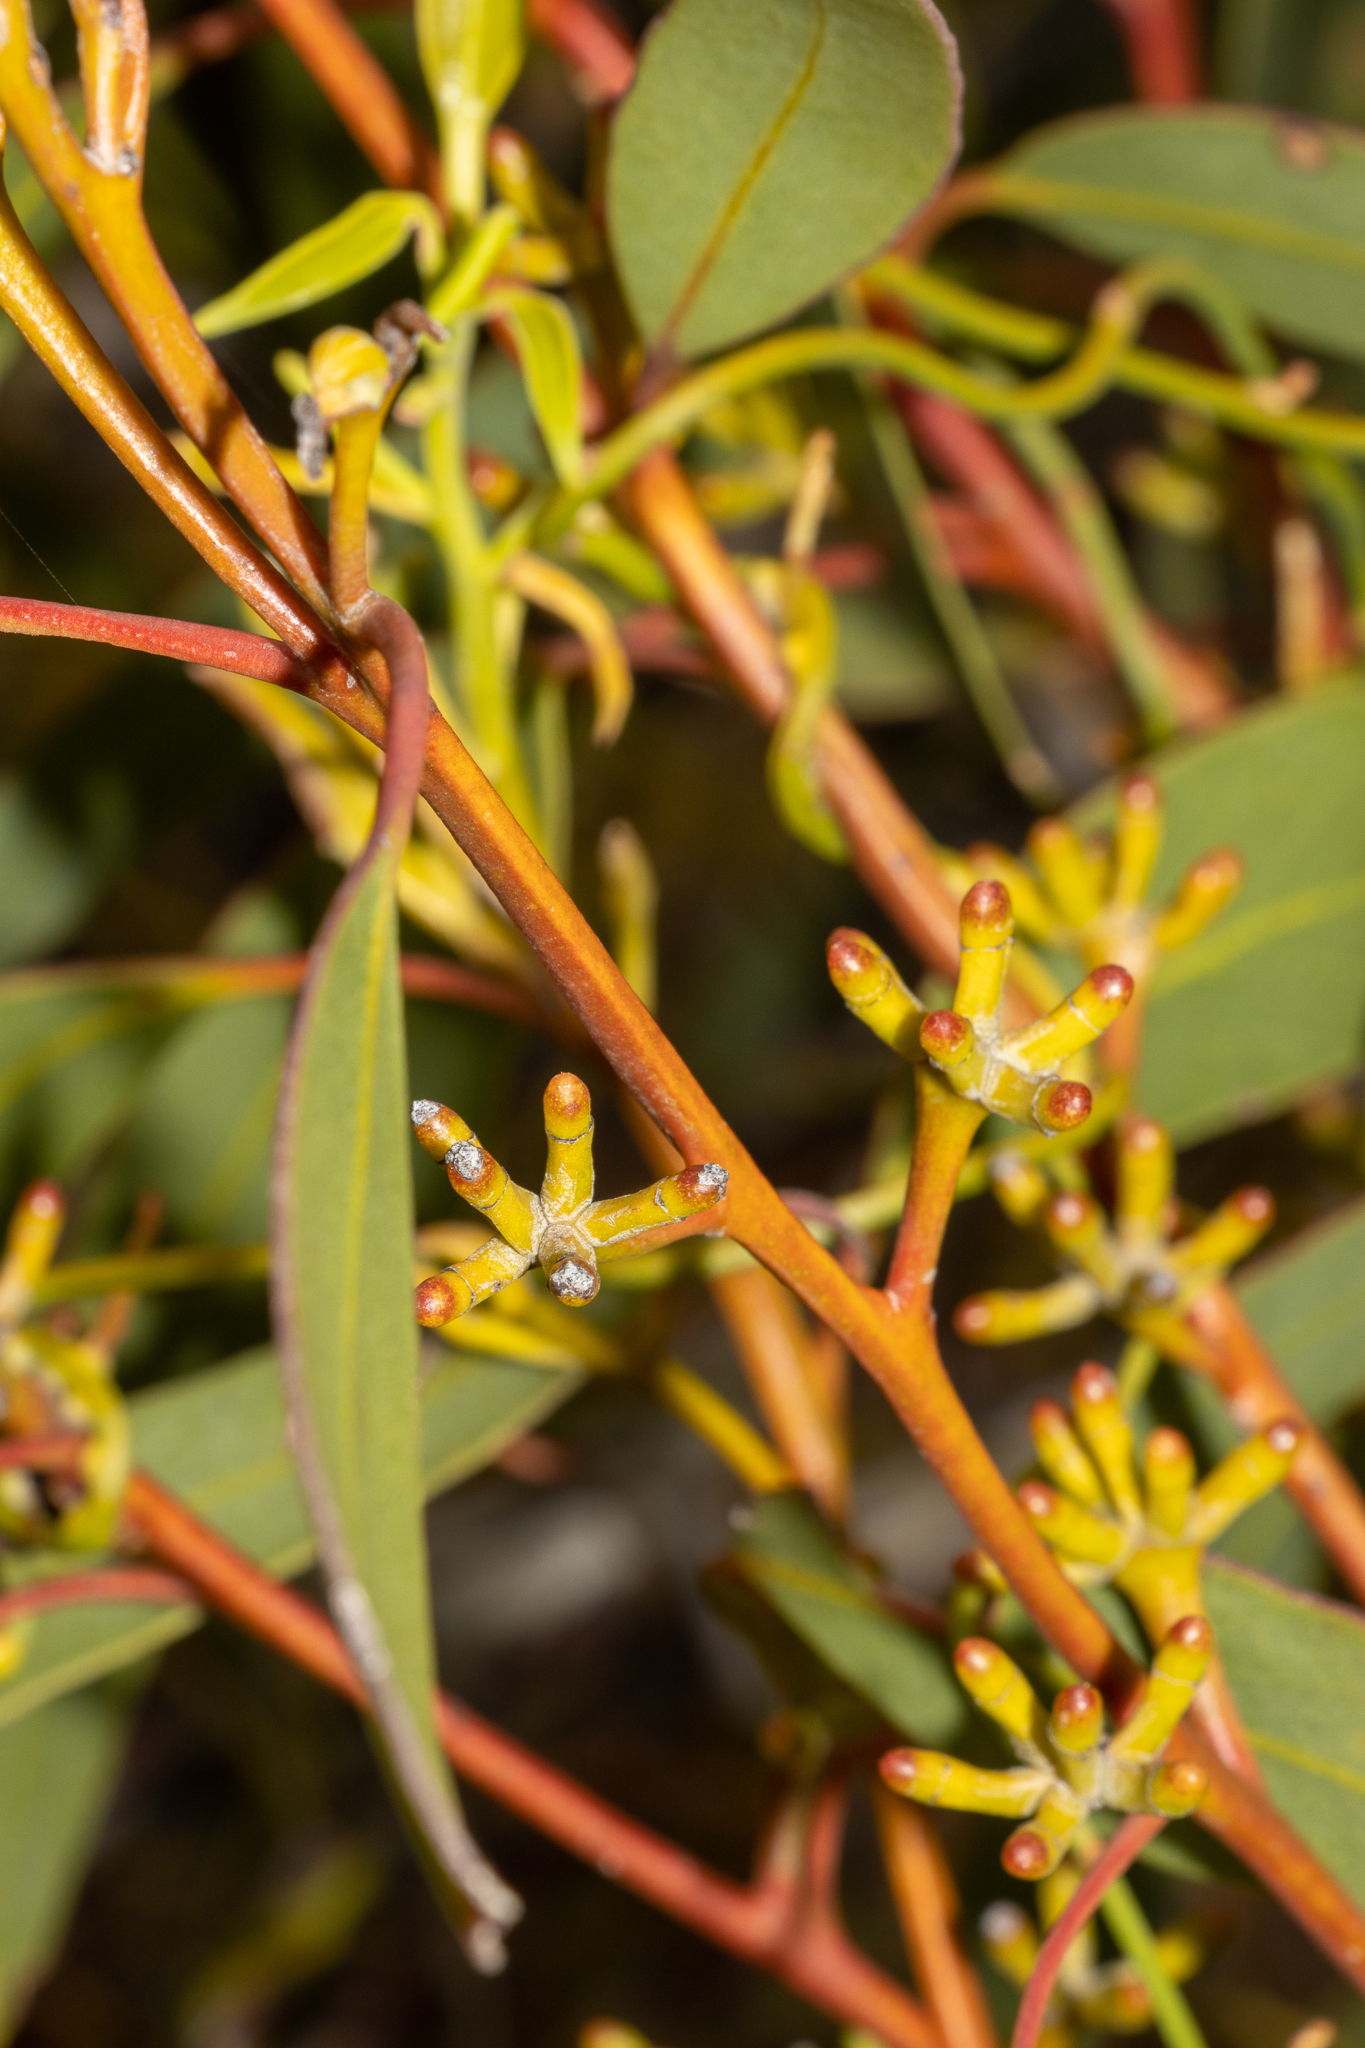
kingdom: Plantae
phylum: Tracheophyta
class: Magnoliopsida
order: Myrtales
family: Myrtaceae
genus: Eucalyptus
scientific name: Eucalyptus calcareana
